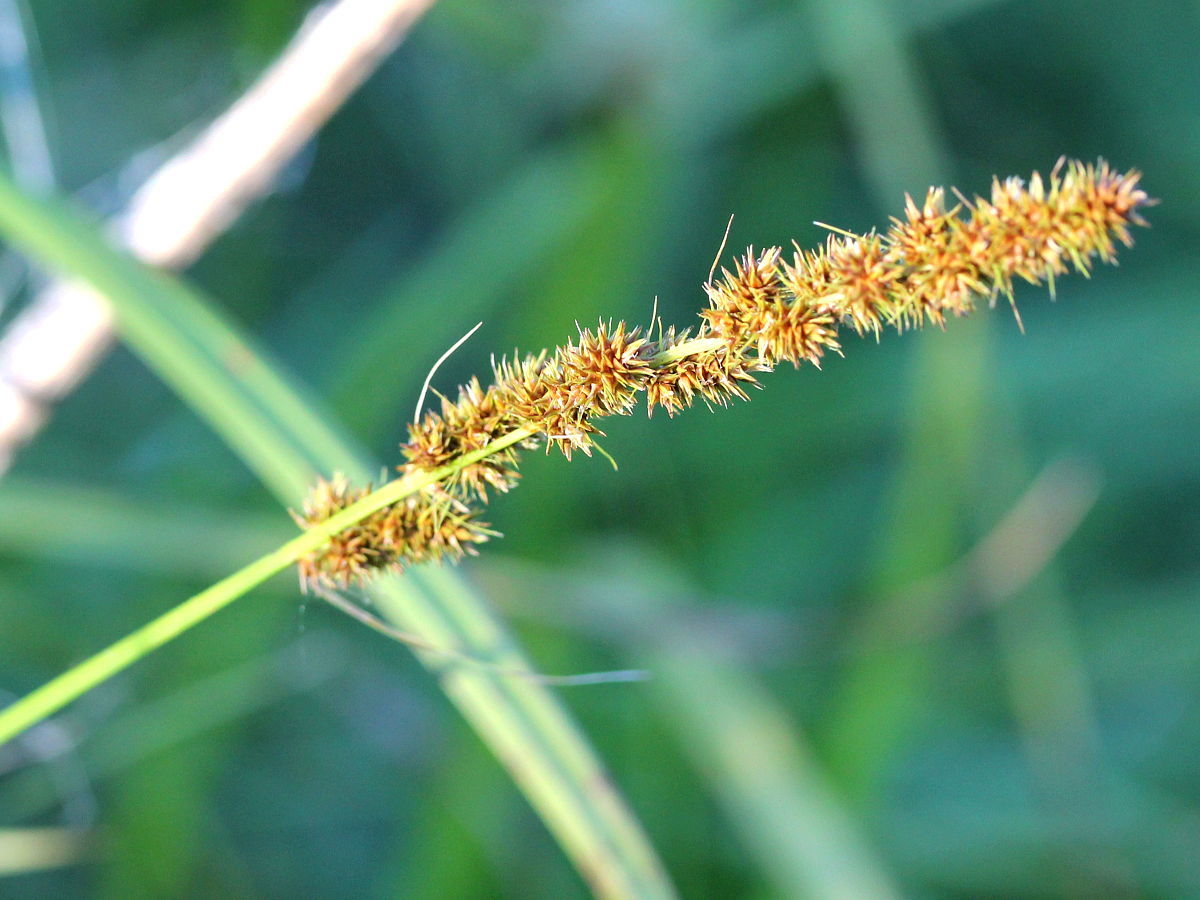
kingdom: Plantae
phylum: Tracheophyta
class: Liliopsida
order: Poales
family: Cyperaceae
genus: Carex
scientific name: Carex vulpinoidea
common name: American fox-sedge
